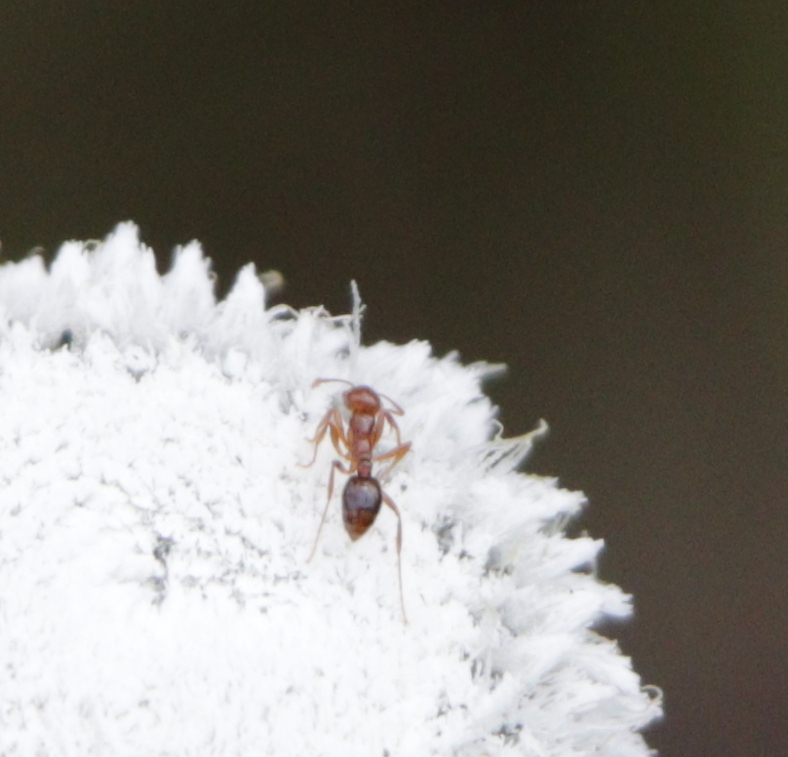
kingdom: Animalia
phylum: Arthropoda
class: Insecta
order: Hymenoptera
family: Formicidae
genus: Solenopsis
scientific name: Solenopsis invicta
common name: Red imported fire ant
